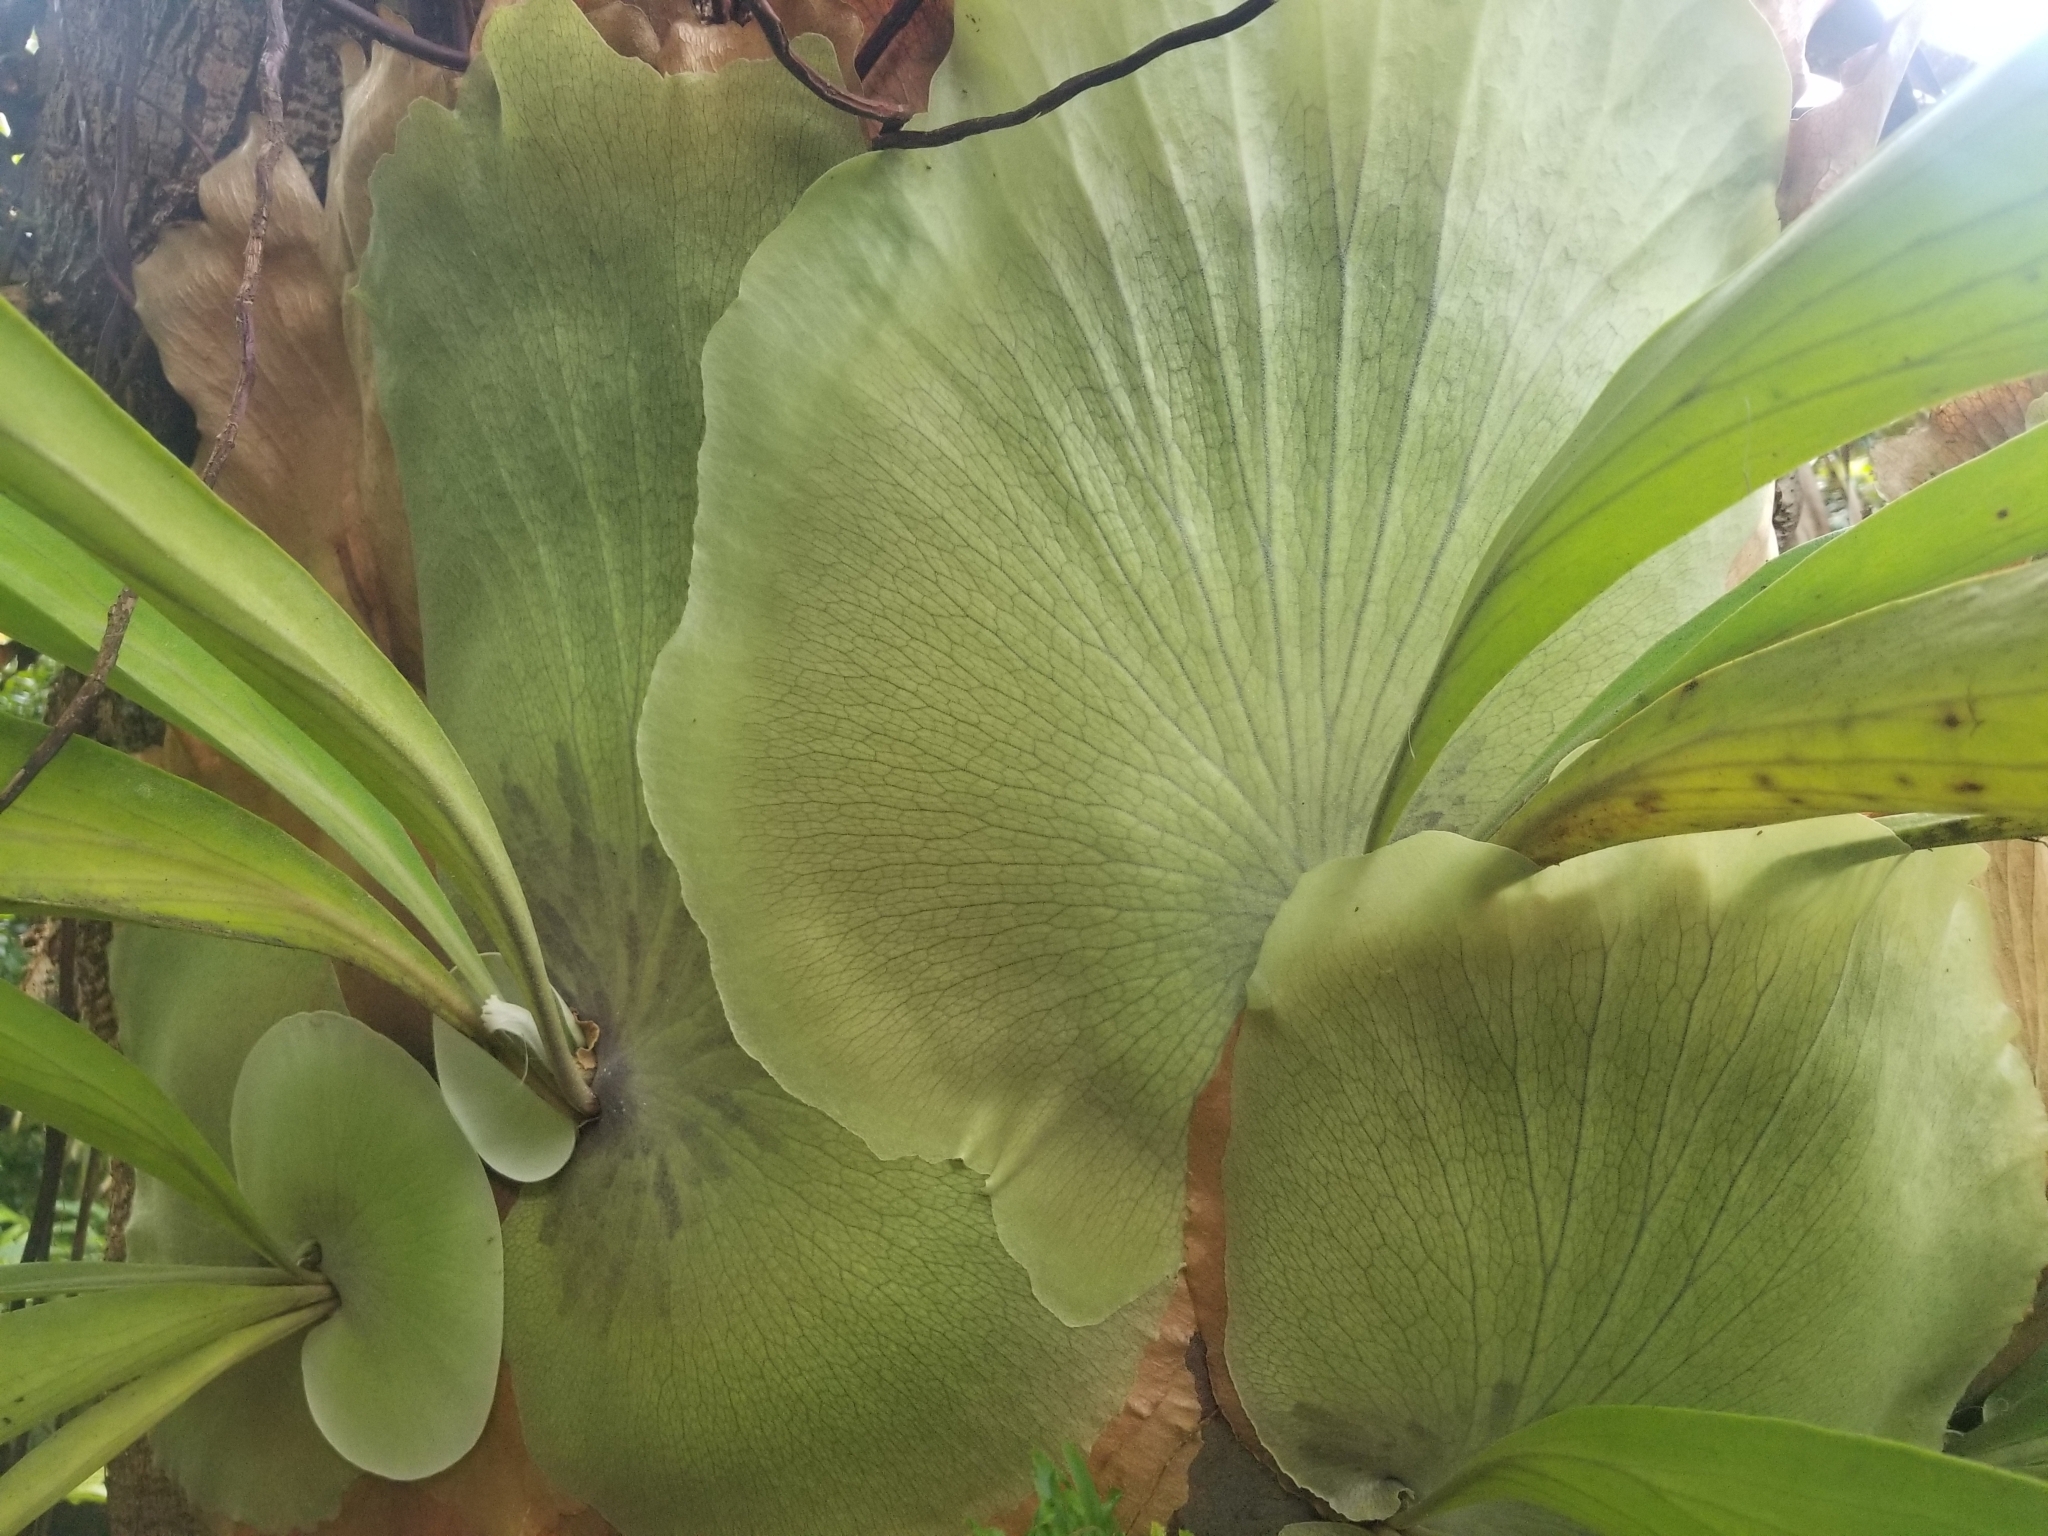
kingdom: Plantae
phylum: Tracheophyta
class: Polypodiopsida
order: Polypodiales
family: Polypodiaceae
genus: Platycerium
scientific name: Platycerium bifurcatum
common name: Elkhorn fern
